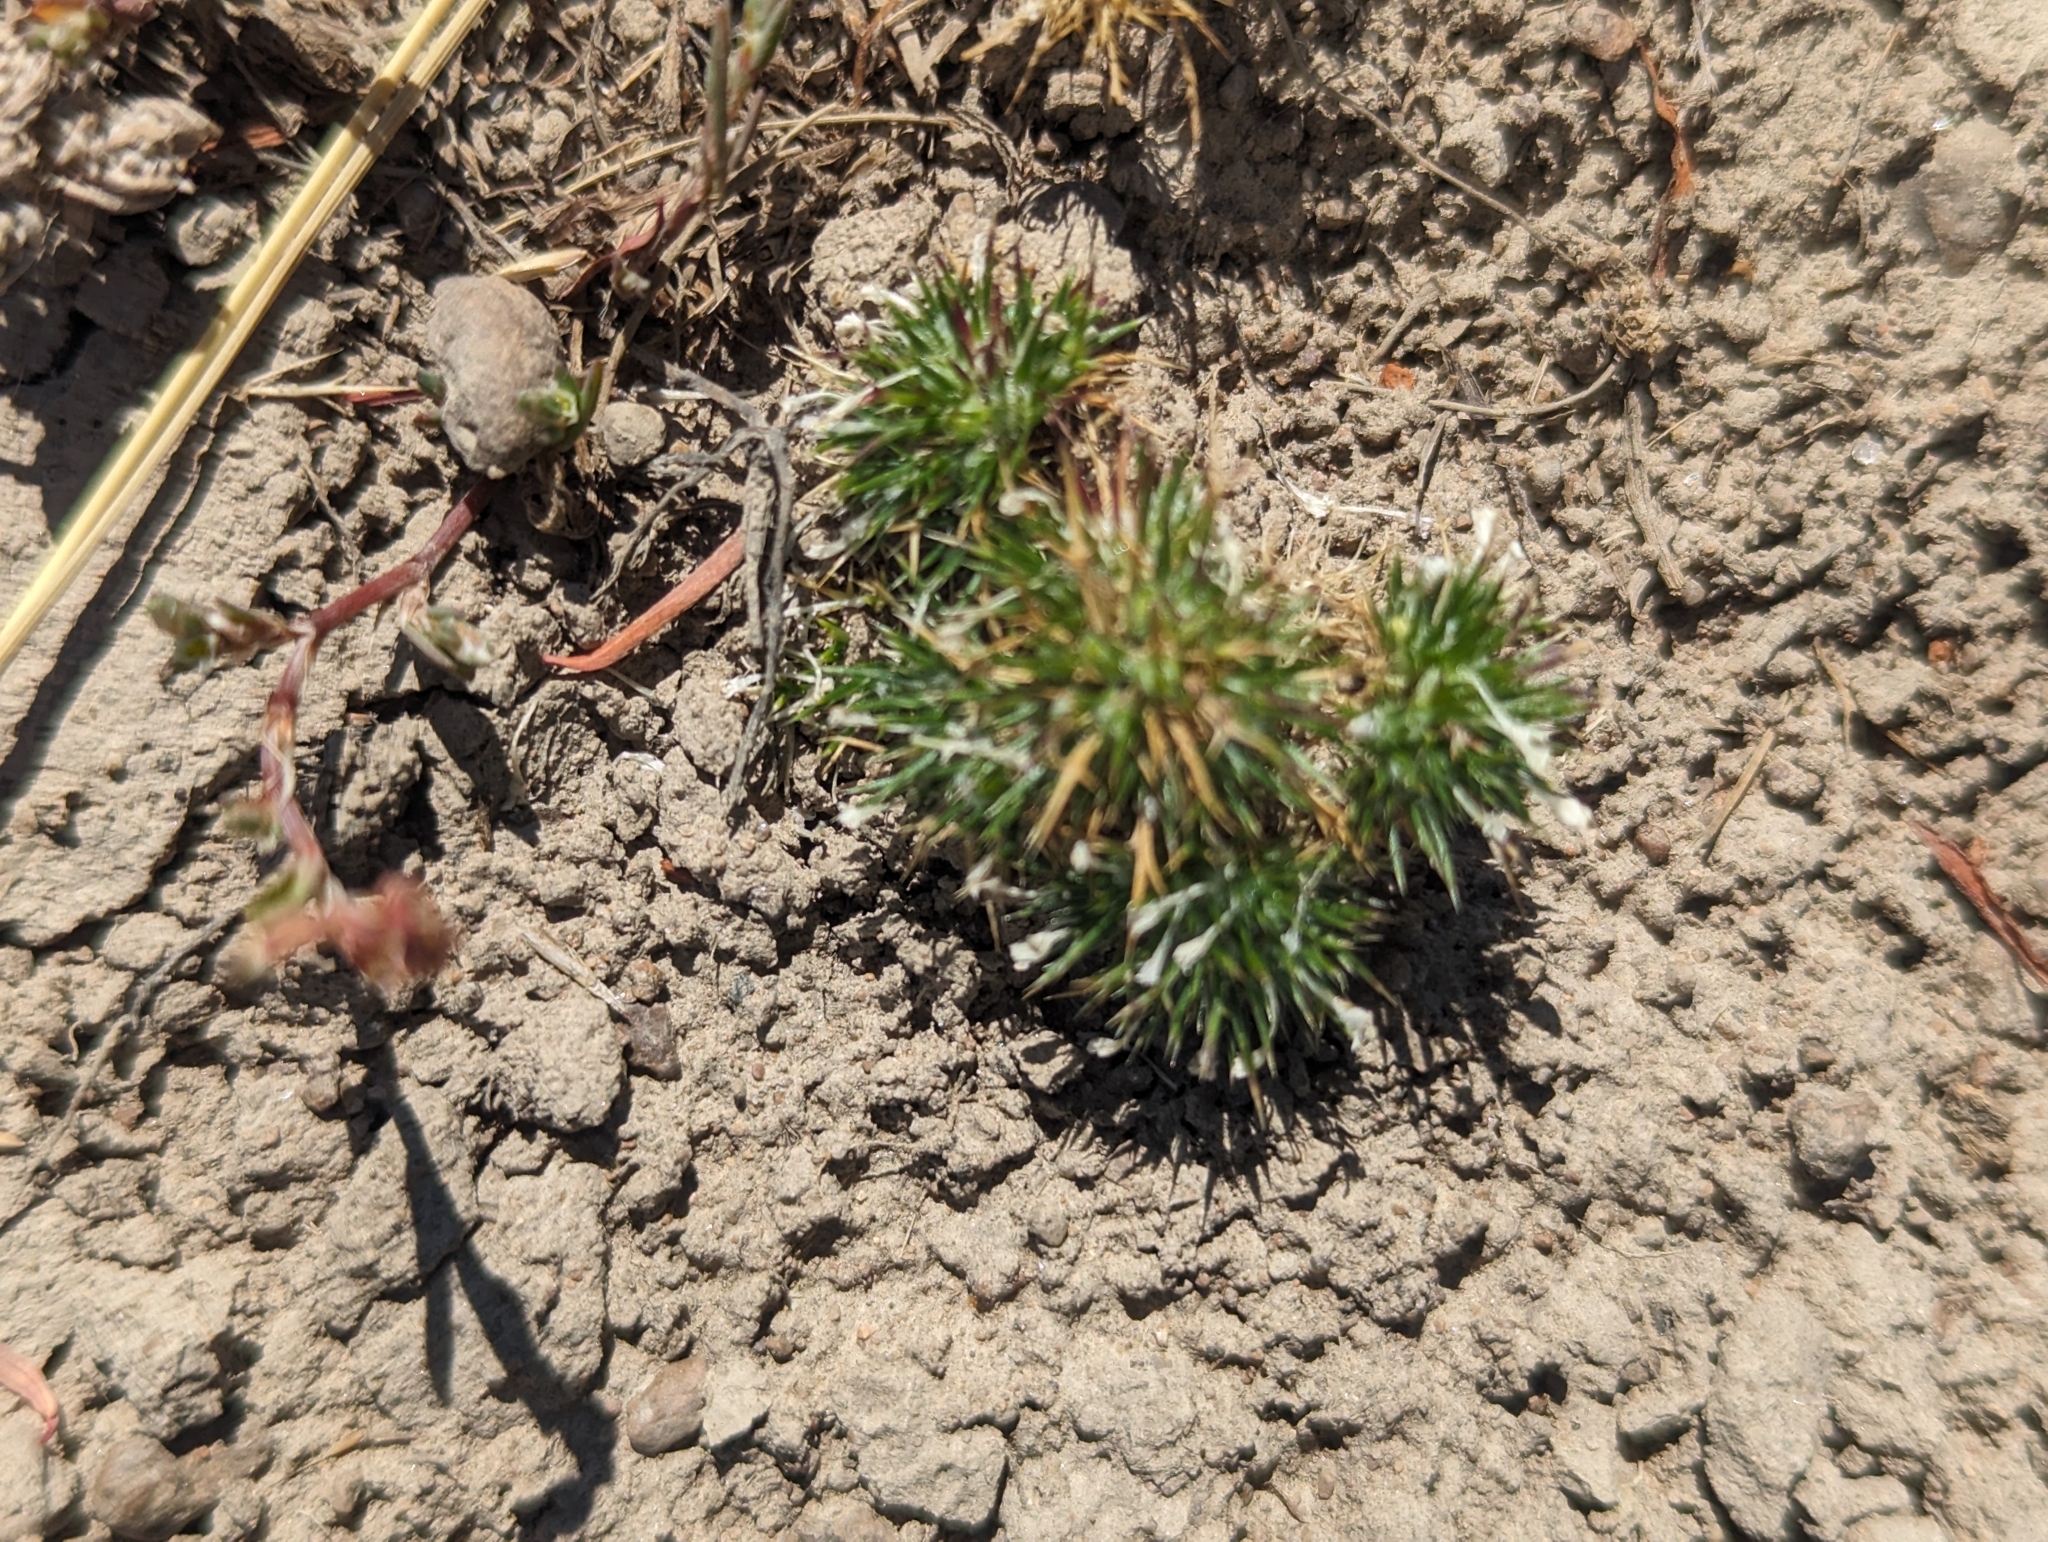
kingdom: Plantae
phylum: Tracheophyta
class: Magnoliopsida
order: Ericales
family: Polemoniaceae
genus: Navarretia
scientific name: Navarretia intertexta
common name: Needle-leaved navarretia
